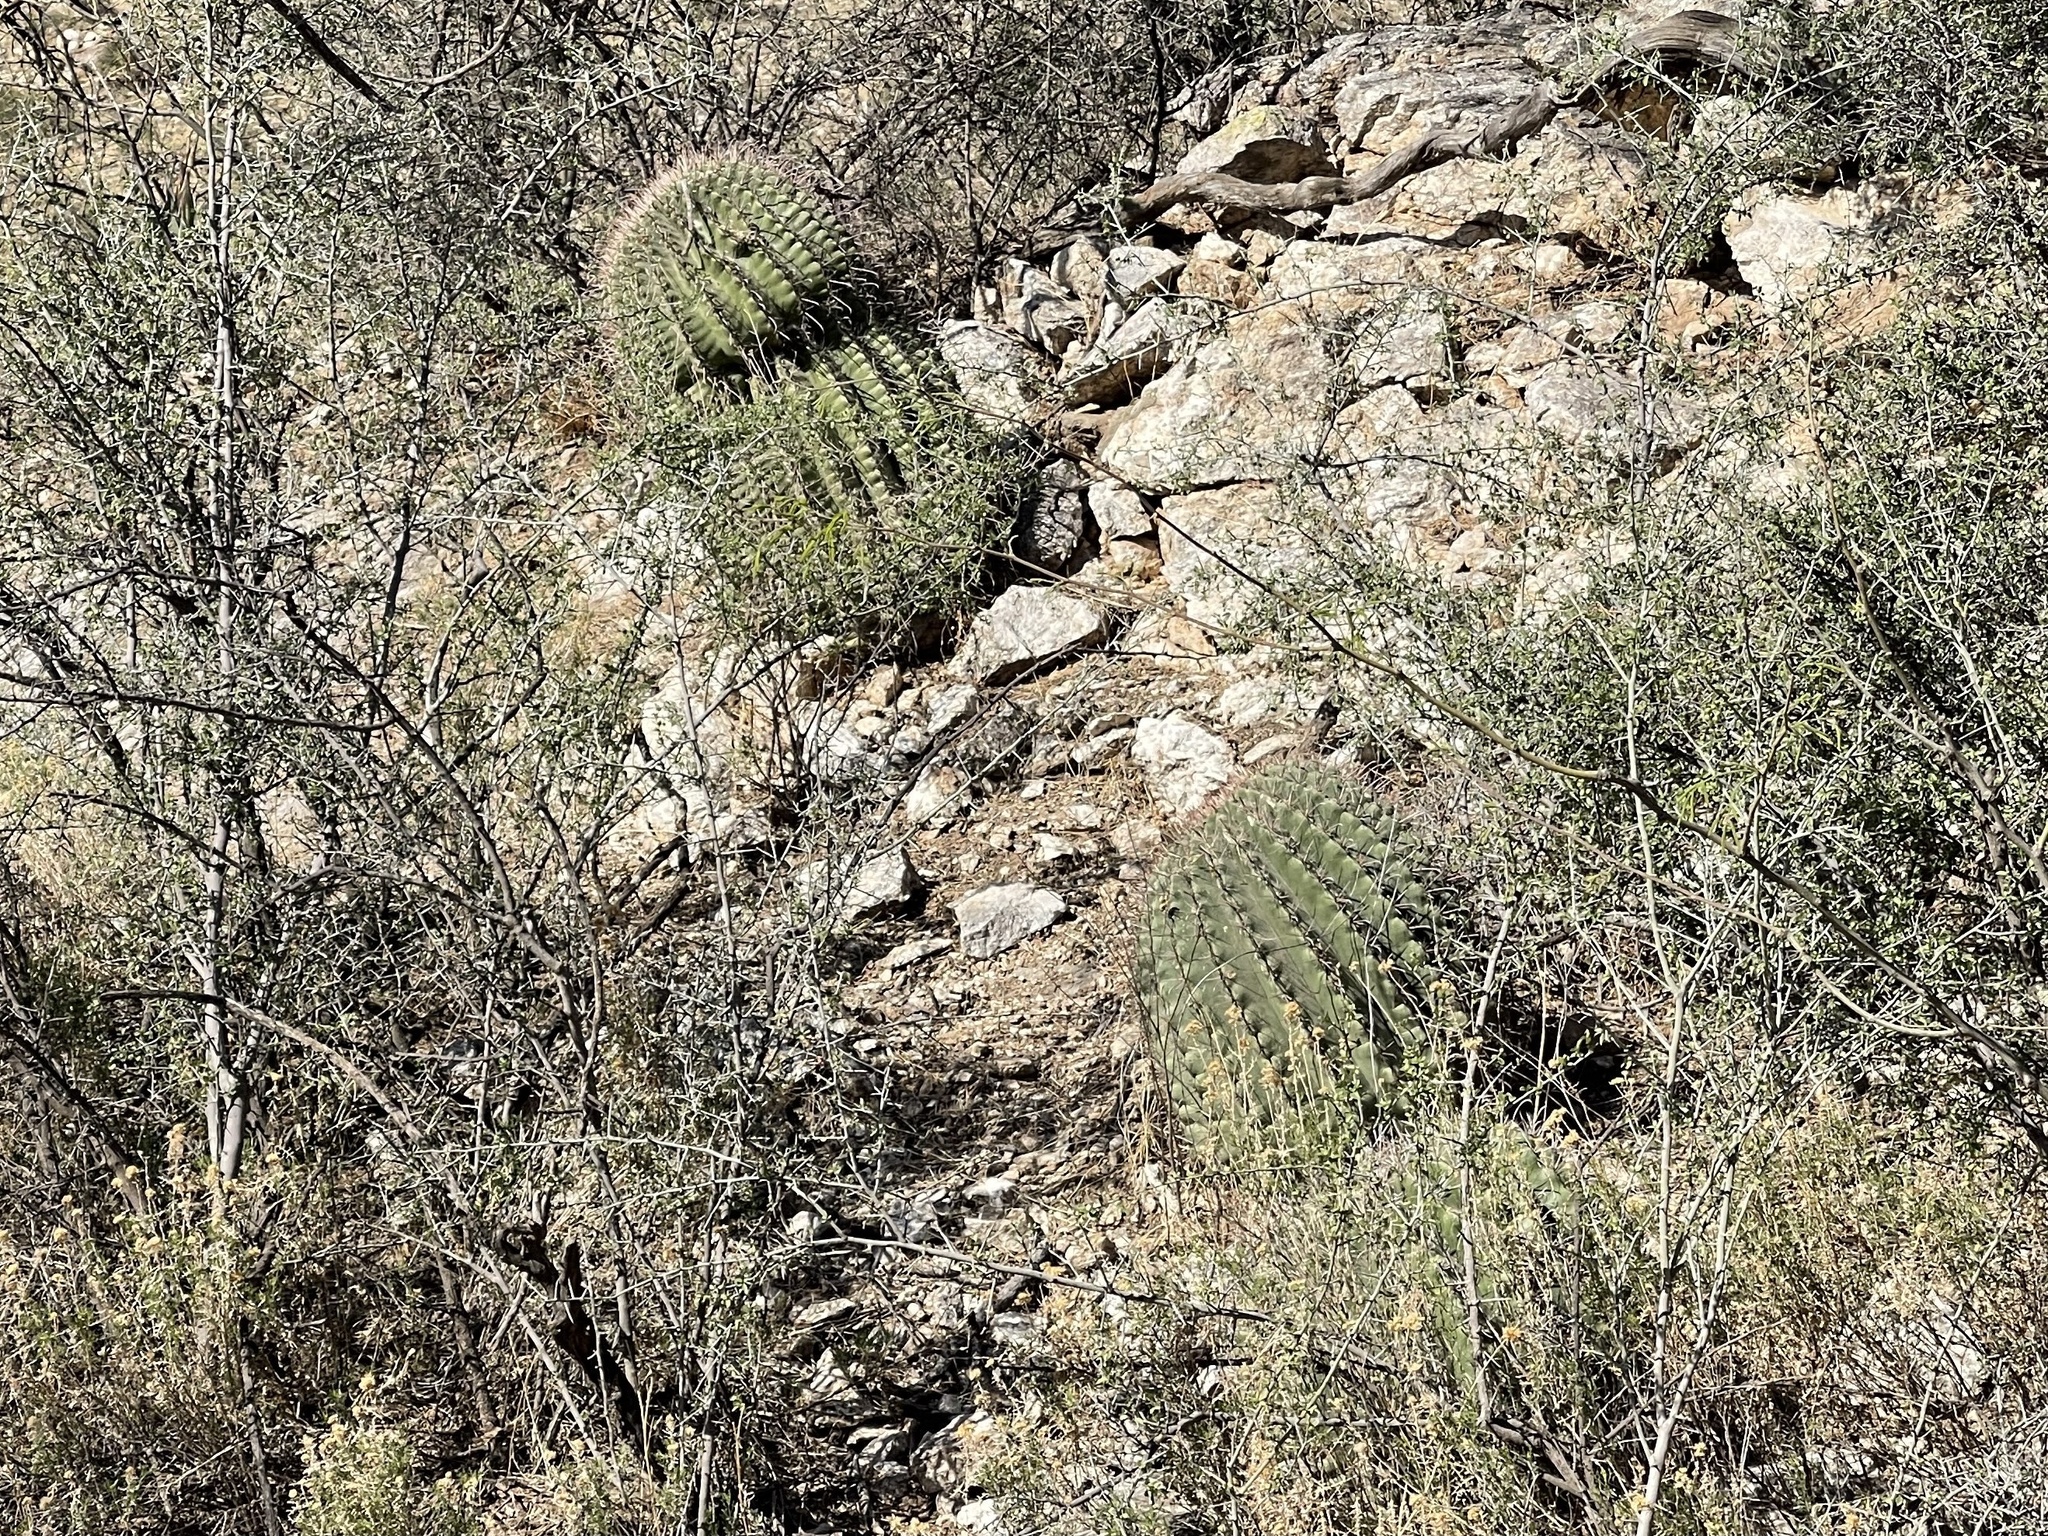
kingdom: Plantae
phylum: Tracheophyta
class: Magnoliopsida
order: Caryophyllales
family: Cactaceae
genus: Ferocactus
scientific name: Ferocactus wislizeni
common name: Candy barrel cactus
